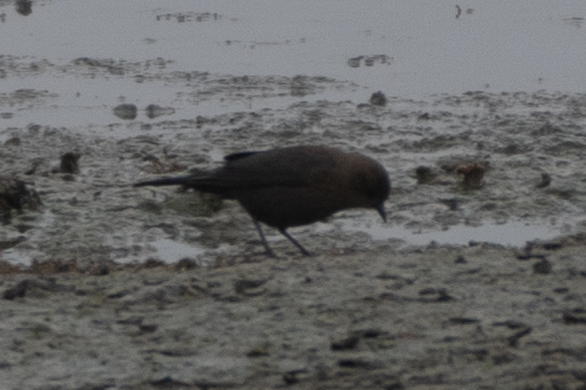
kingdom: Animalia
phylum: Chordata
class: Aves
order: Passeriformes
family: Icteridae
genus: Euphagus
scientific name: Euphagus cyanocephalus
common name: Brewer's blackbird
